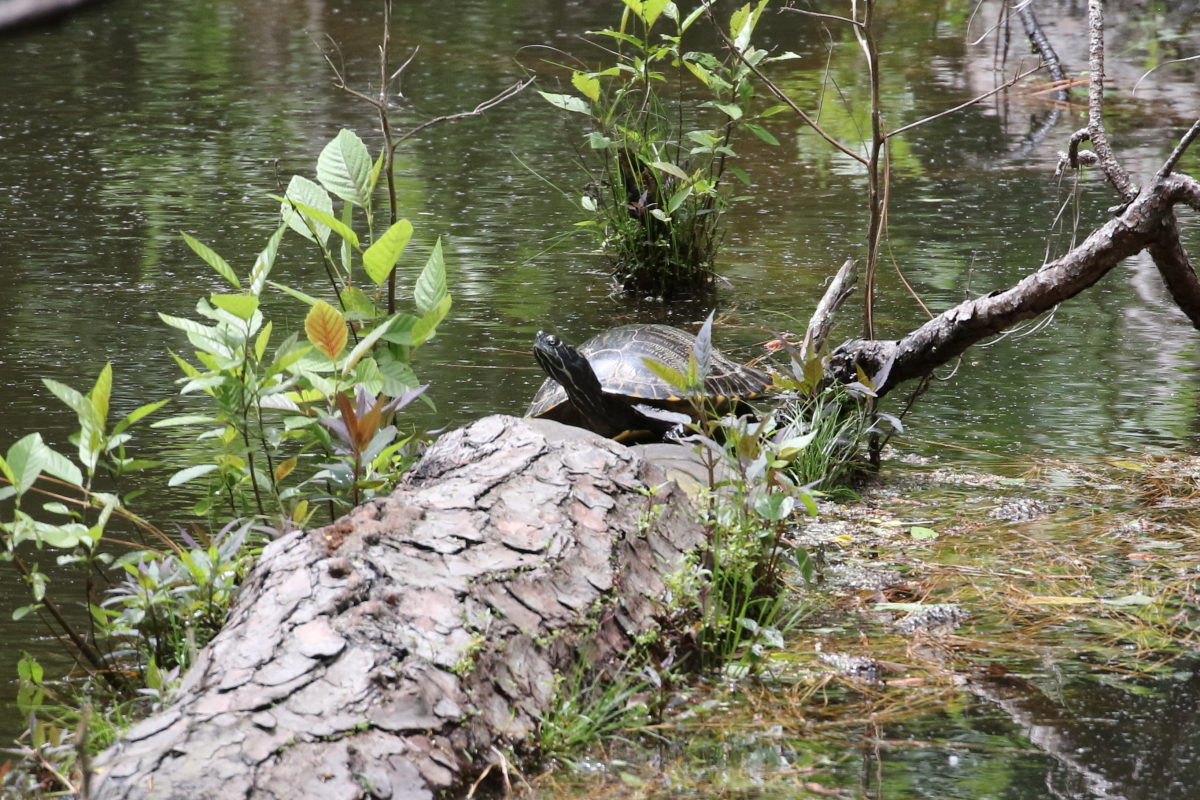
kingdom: Animalia
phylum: Chordata
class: Testudines
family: Emydidae
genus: Pseudemys
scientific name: Pseudemys concinna
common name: Eastern river cooter
